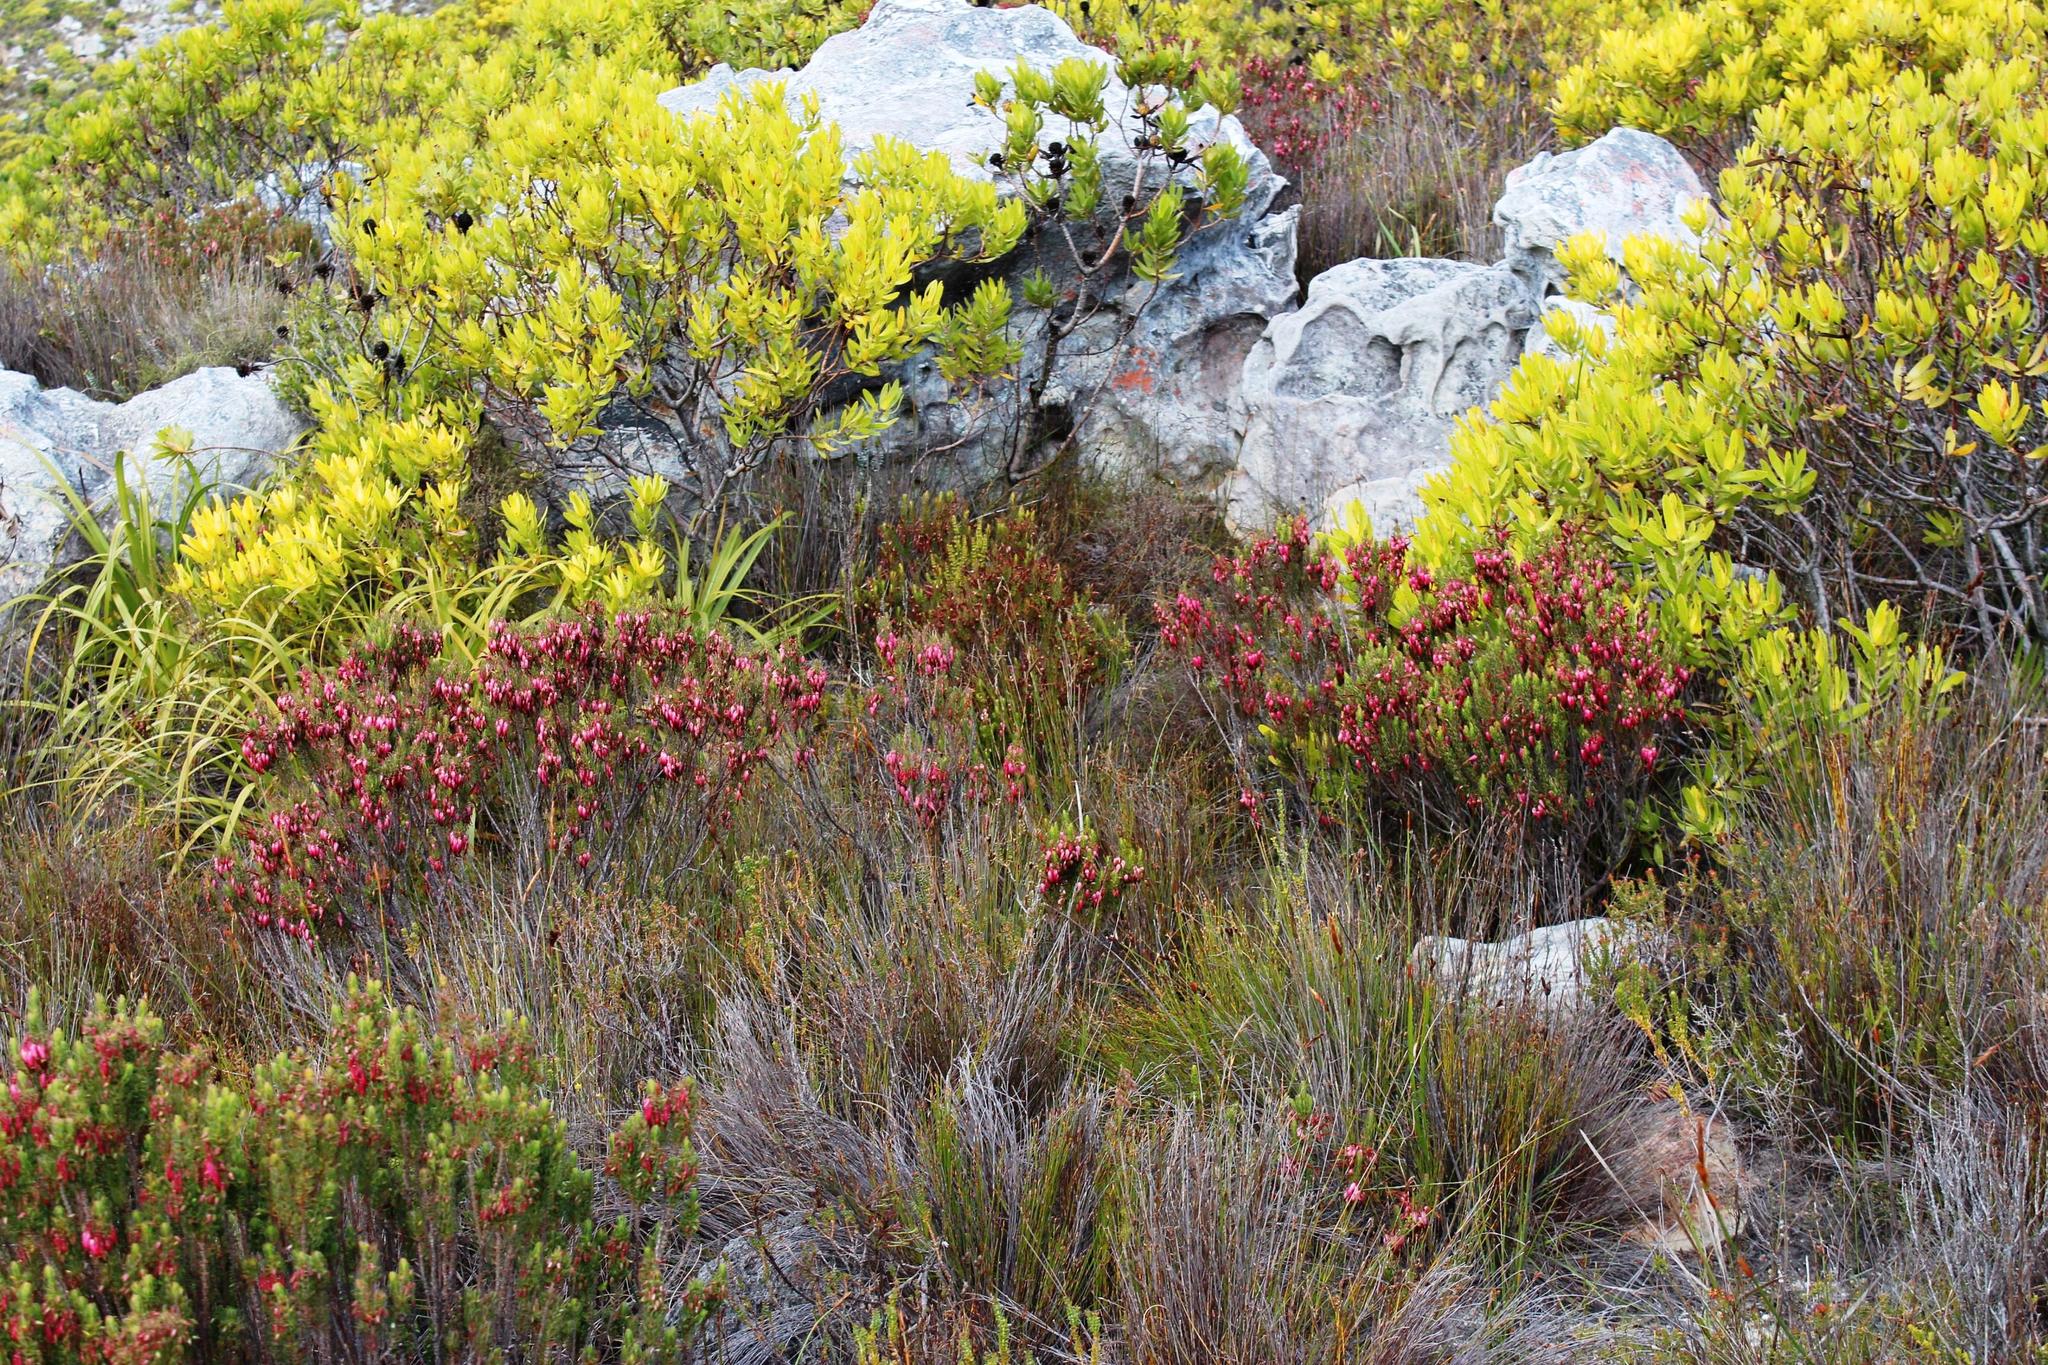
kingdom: Plantae
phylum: Tracheophyta
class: Magnoliopsida
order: Ericales
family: Ericaceae
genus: Erica
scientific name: Erica plukenetii
